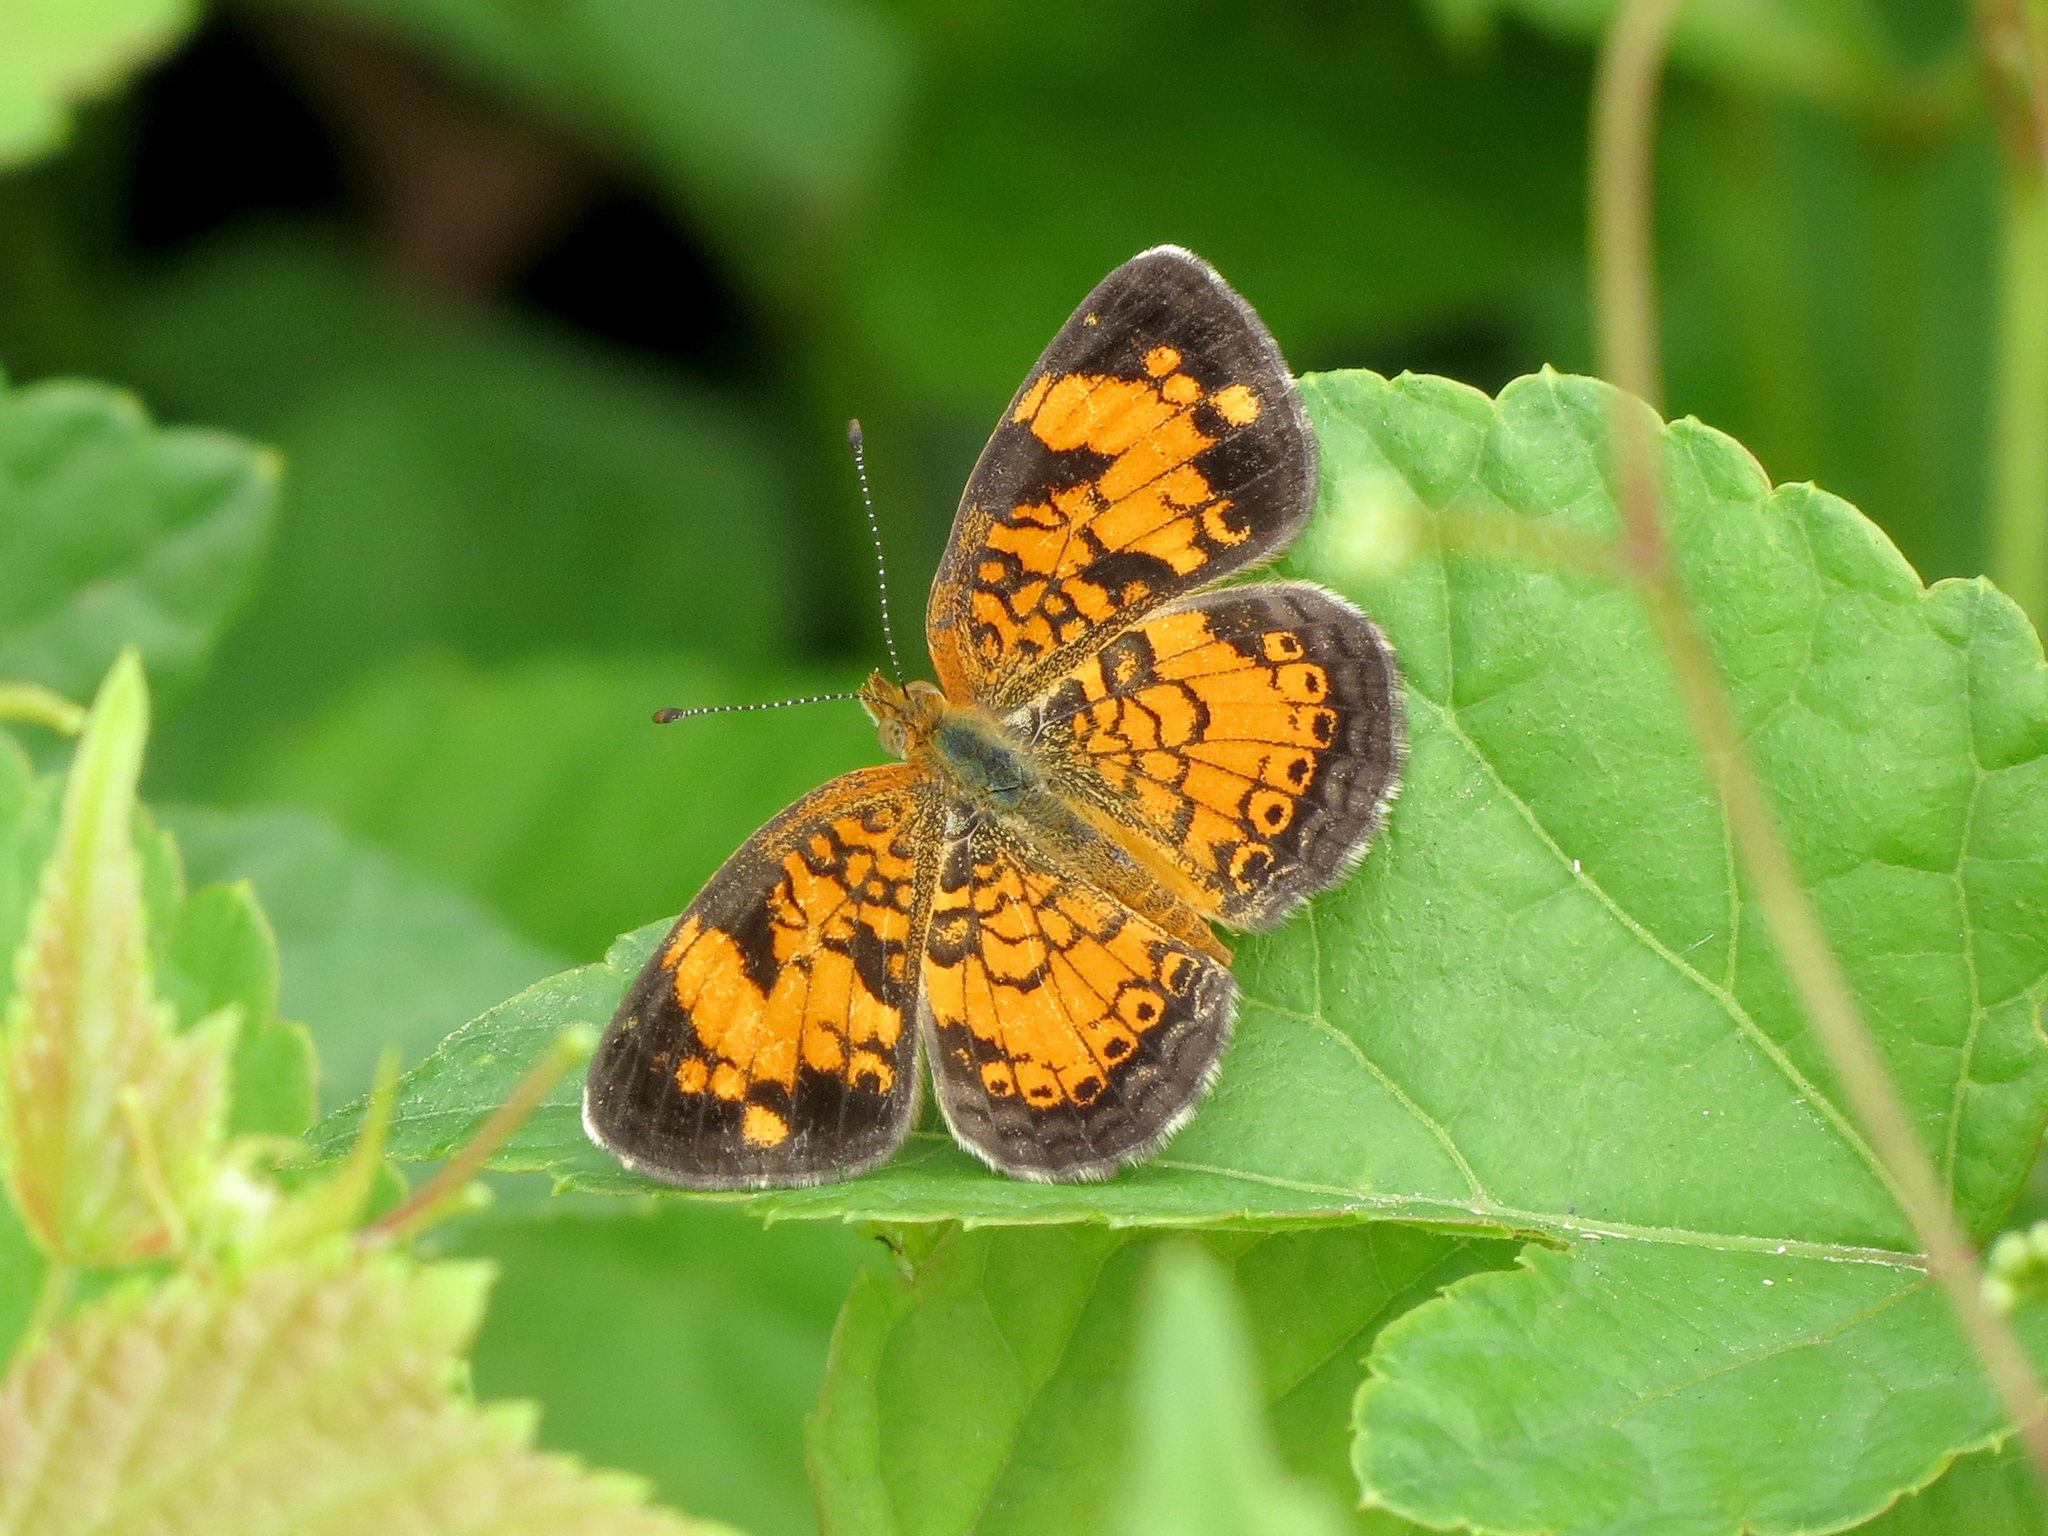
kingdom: Animalia
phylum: Arthropoda
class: Insecta
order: Lepidoptera
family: Nymphalidae
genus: Phyciodes
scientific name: Phyciodes tharos
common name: Pearl crescent
